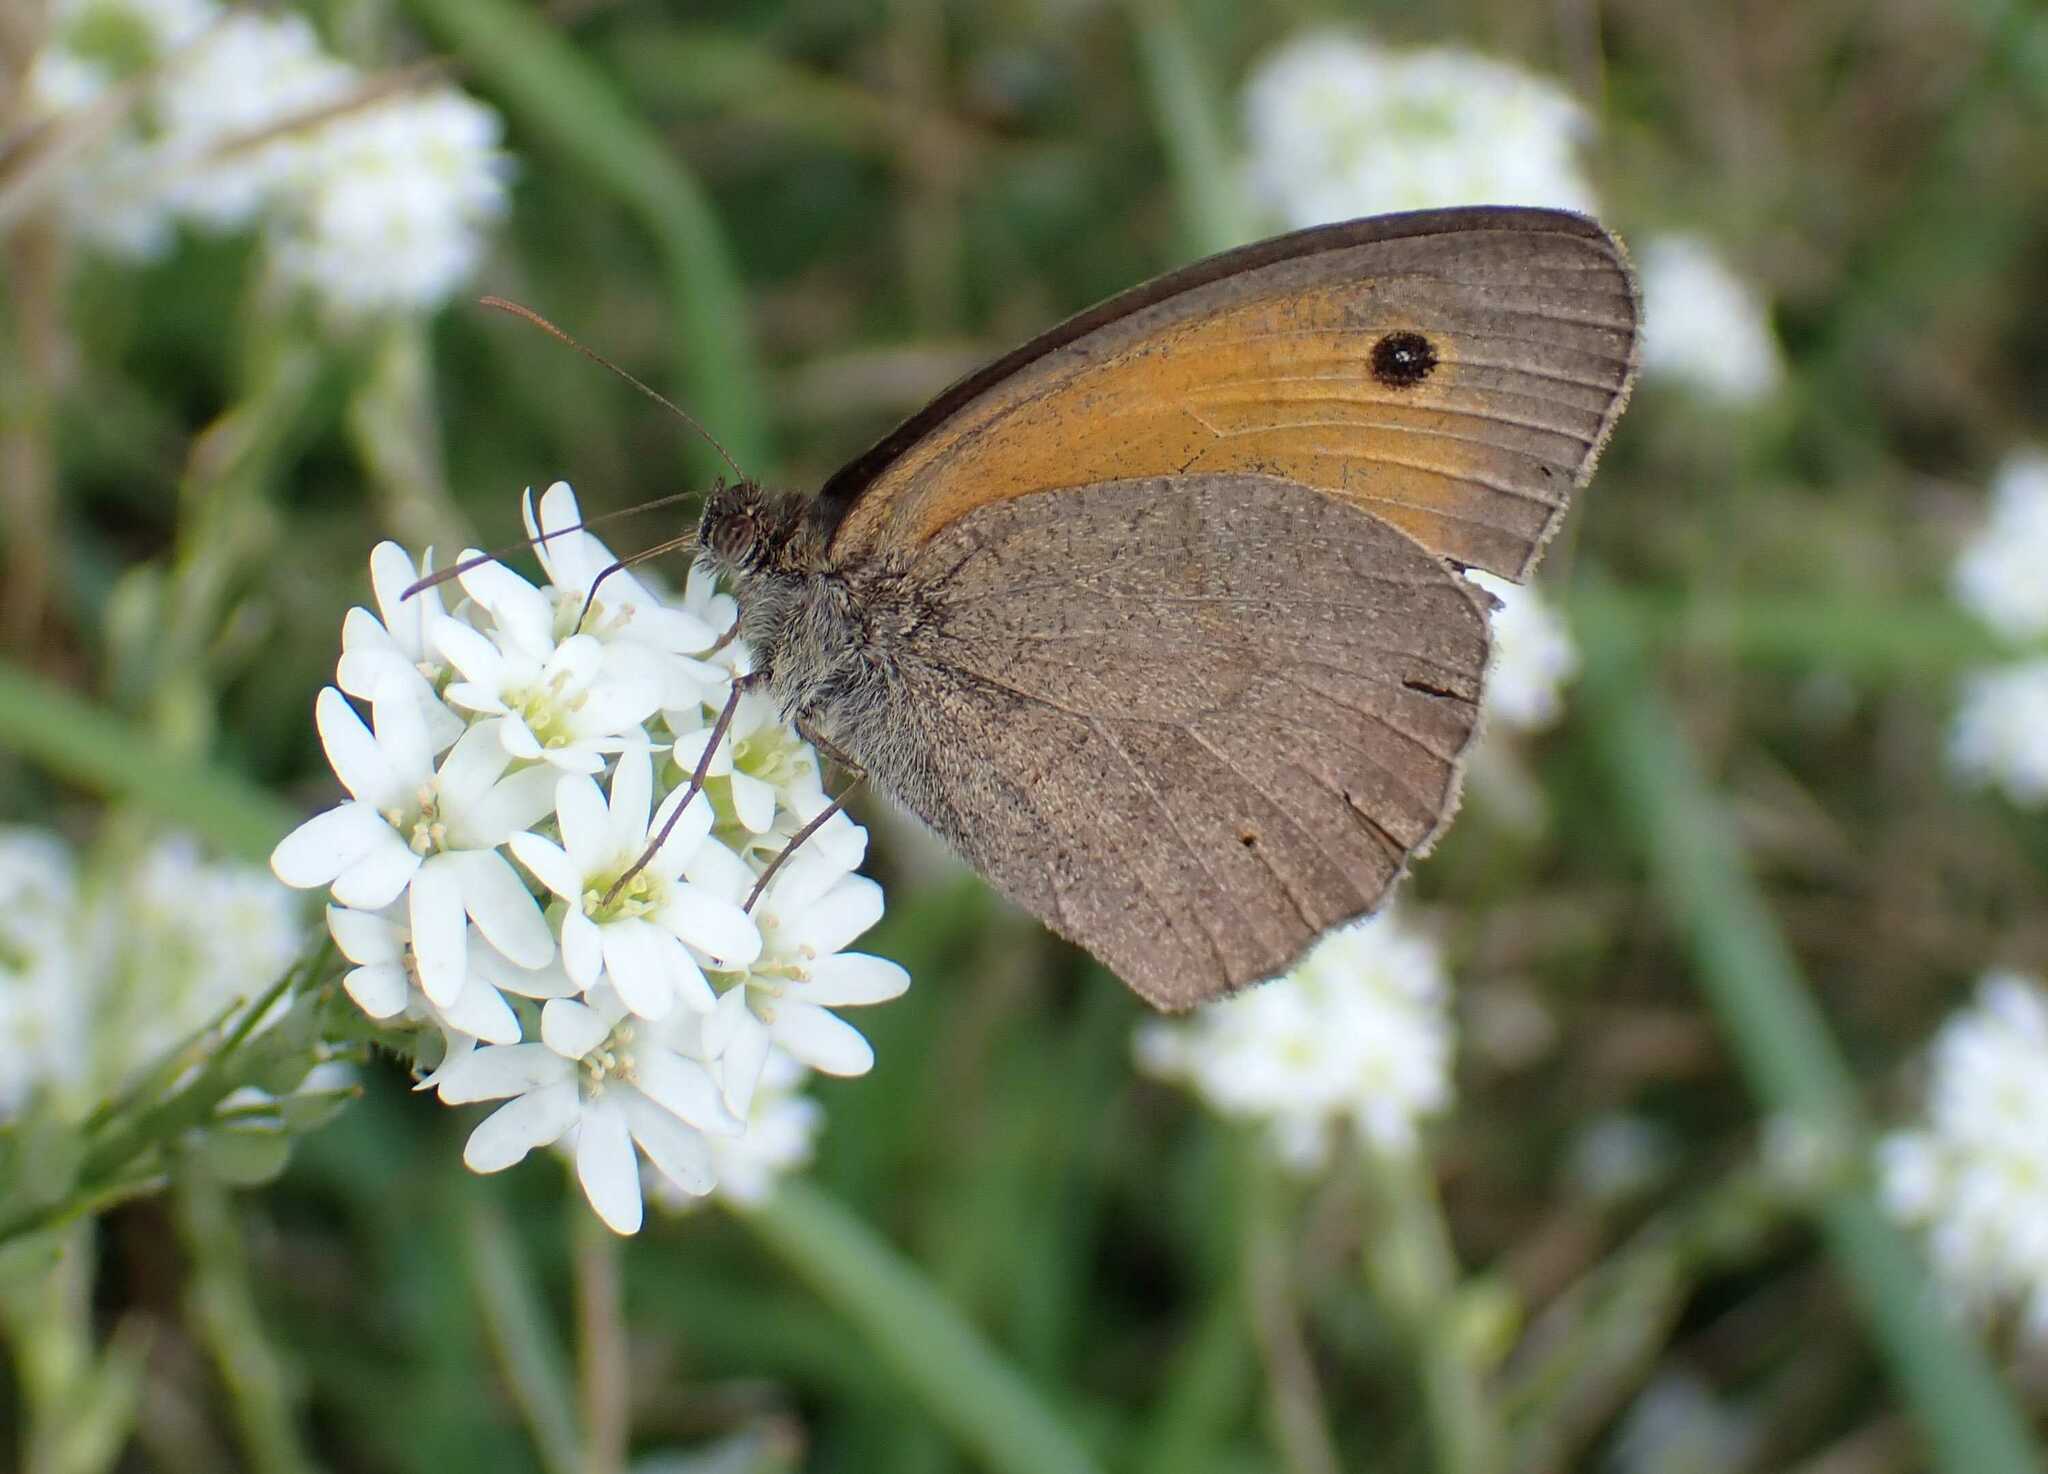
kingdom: Animalia
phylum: Arthropoda
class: Insecta
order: Lepidoptera
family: Nymphalidae
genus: Maniola
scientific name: Maniola jurtina
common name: Meadow brown
